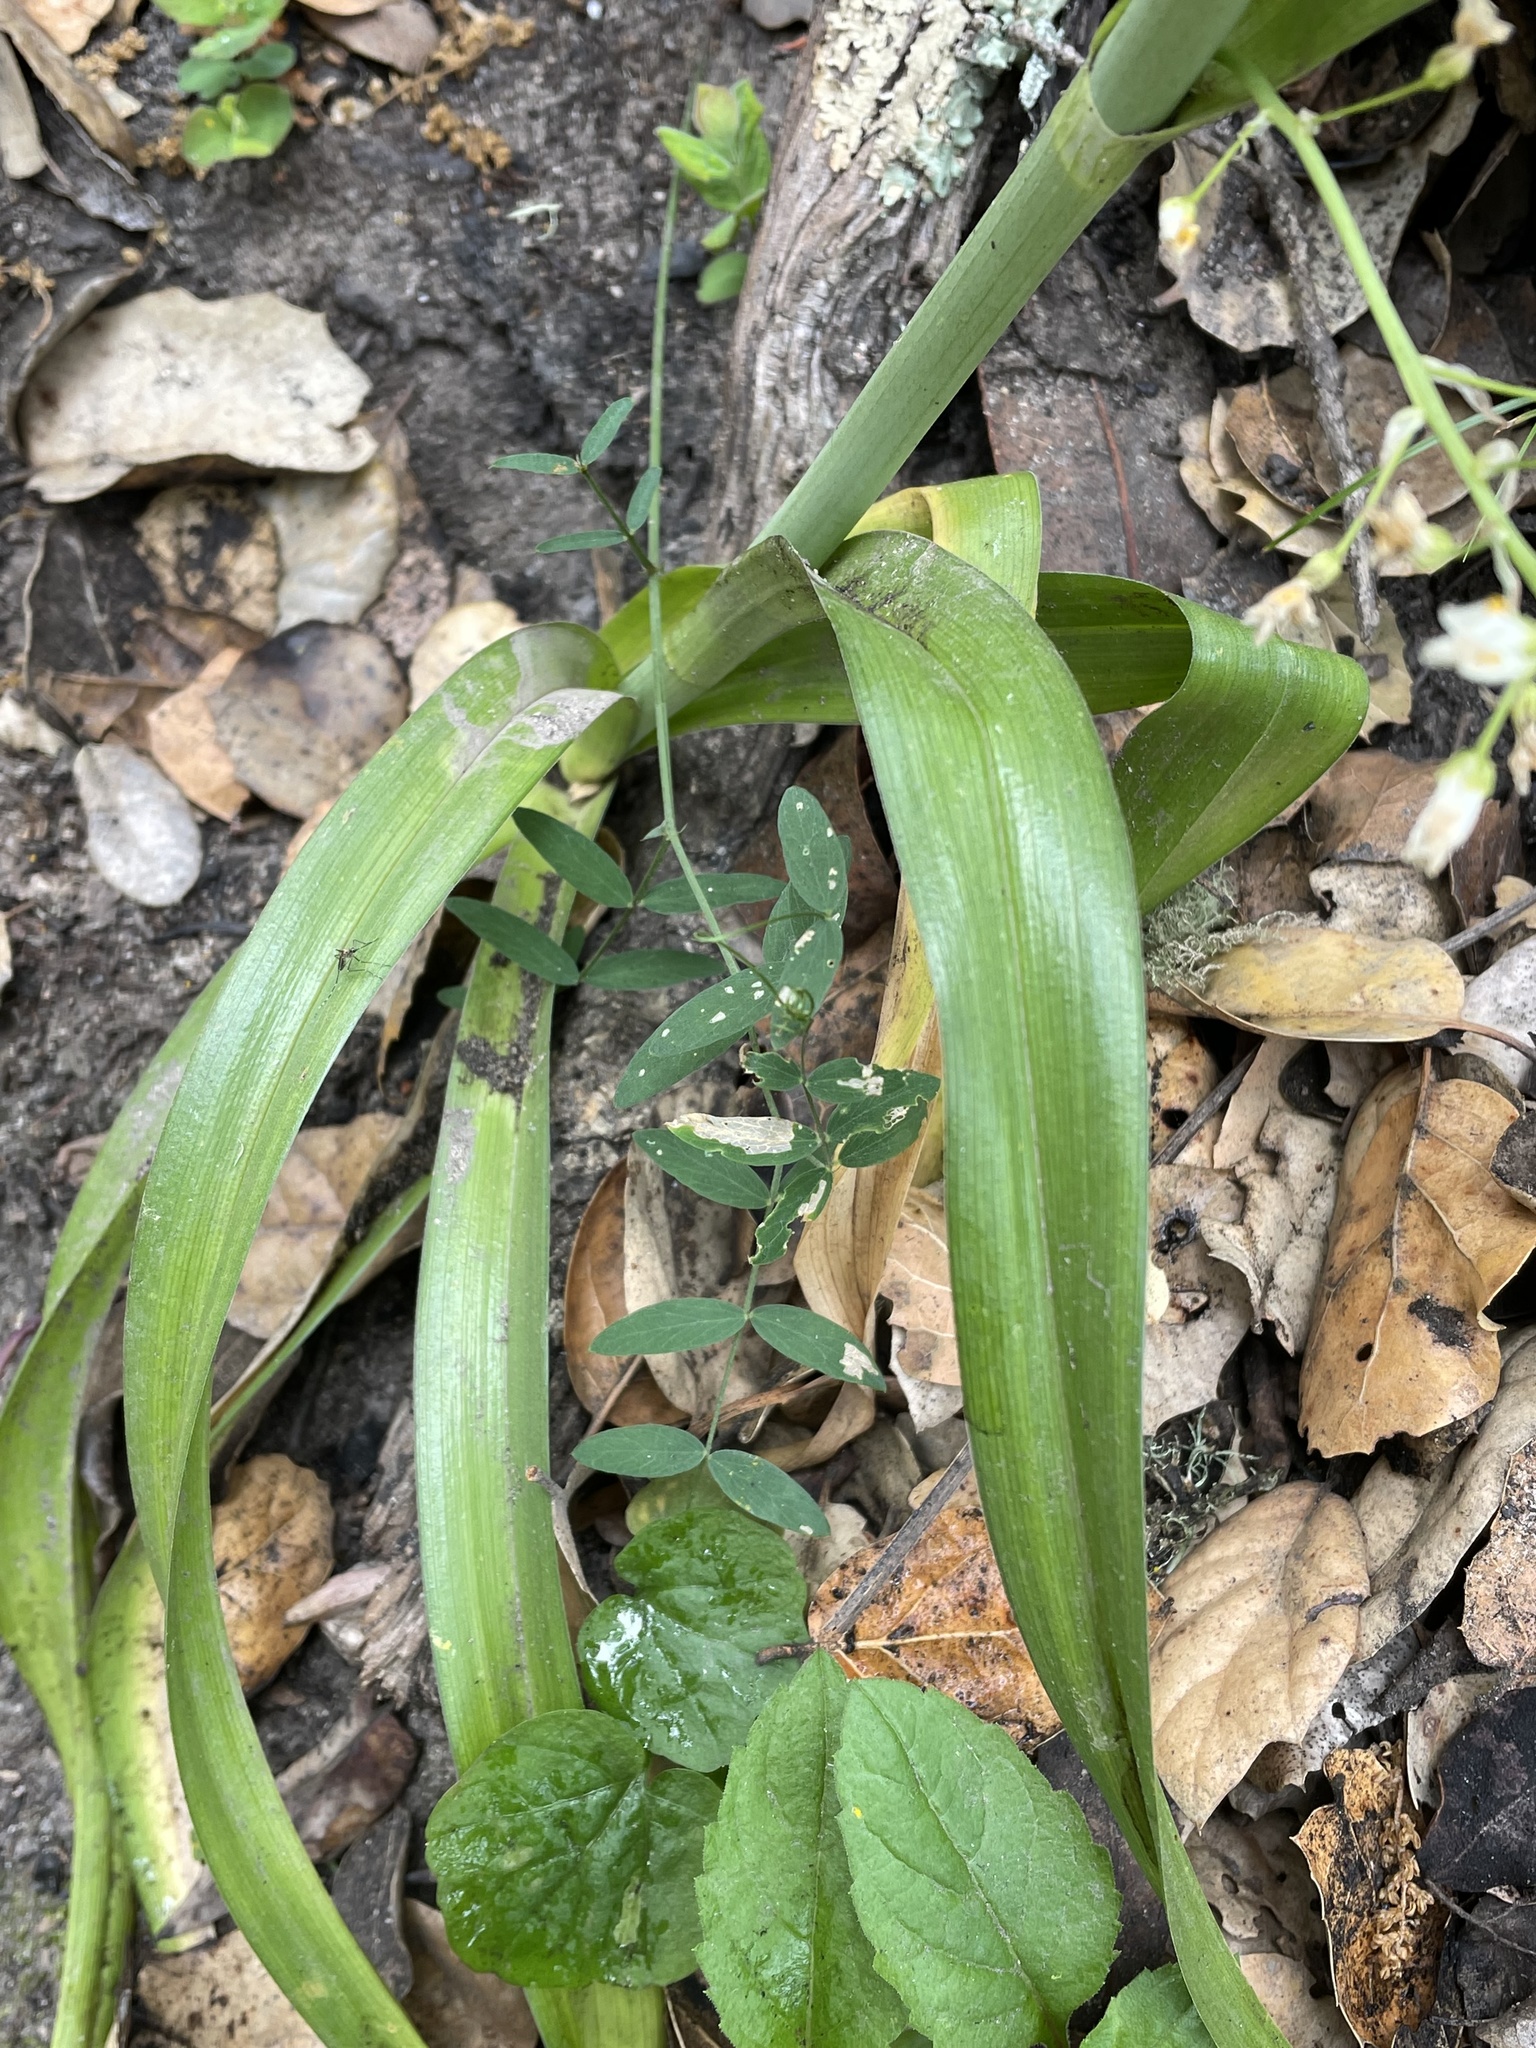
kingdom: Plantae
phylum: Tracheophyta
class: Liliopsida
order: Liliales
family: Melanthiaceae
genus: Toxicoscordion
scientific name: Toxicoscordion fremontii
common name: Fremont's death camas
